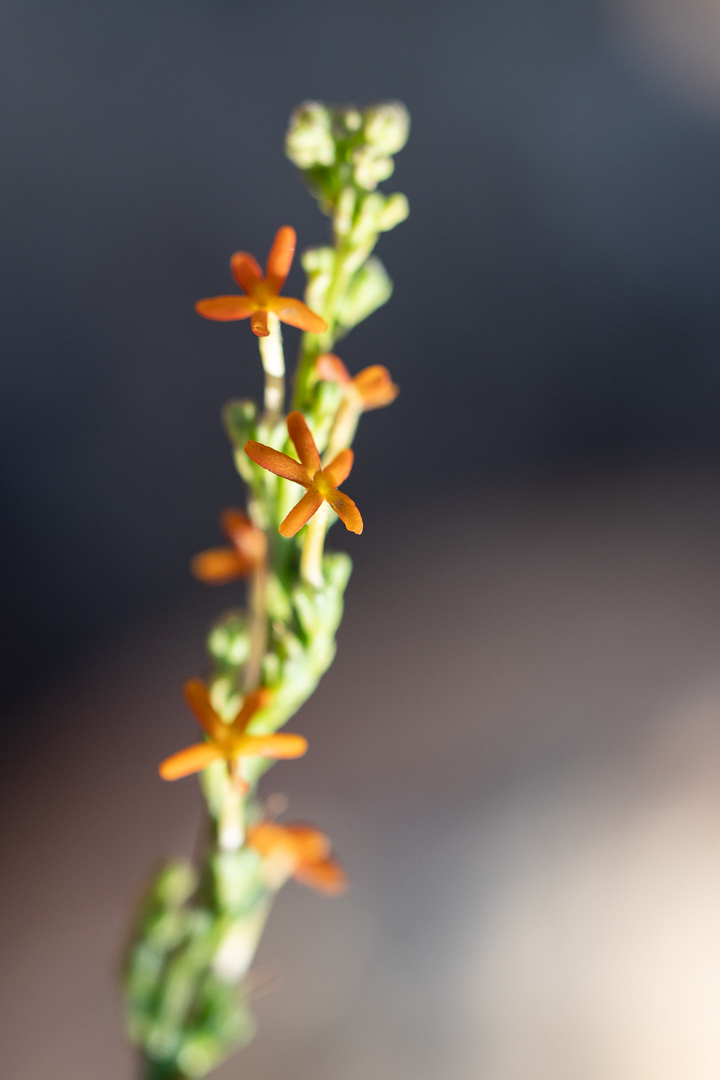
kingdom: Plantae
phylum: Tracheophyta
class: Magnoliopsida
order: Lamiales
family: Scrophulariaceae
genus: Manulea
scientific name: Manulea tomentosa
